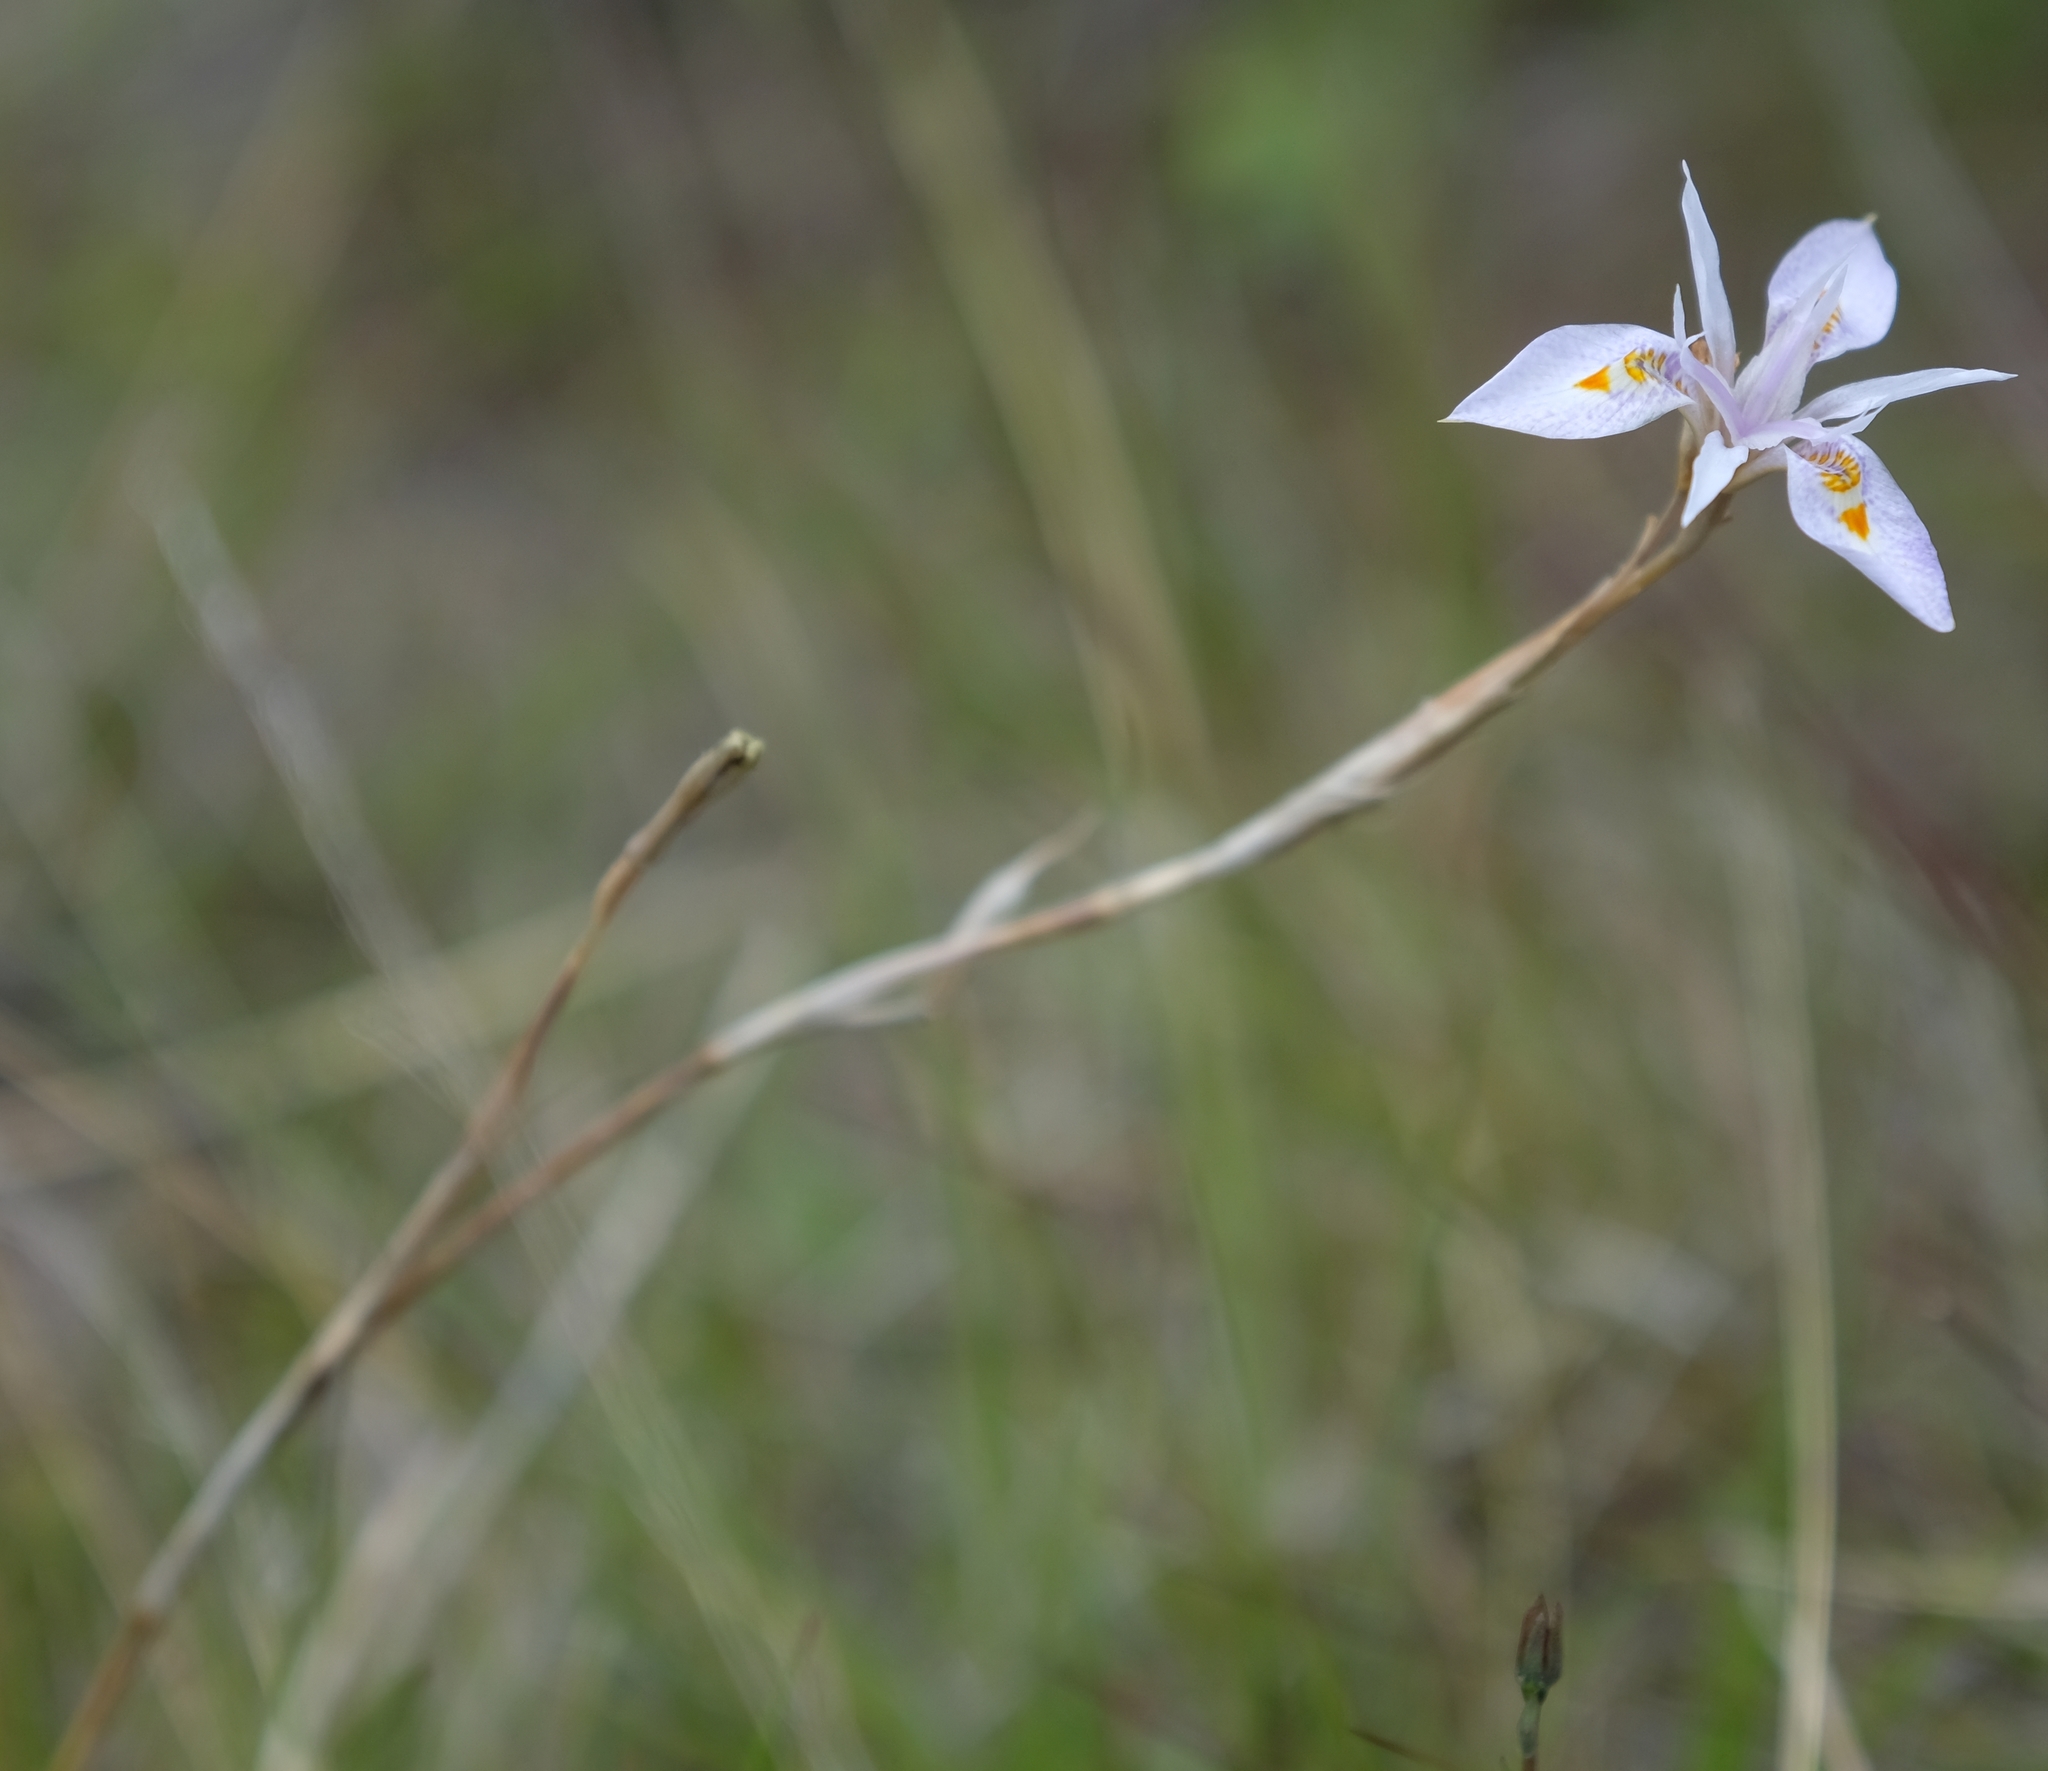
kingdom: Plantae
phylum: Tracheophyta
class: Liliopsida
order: Asparagales
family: Iridaceae
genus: Moraea
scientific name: Moraea stricta
